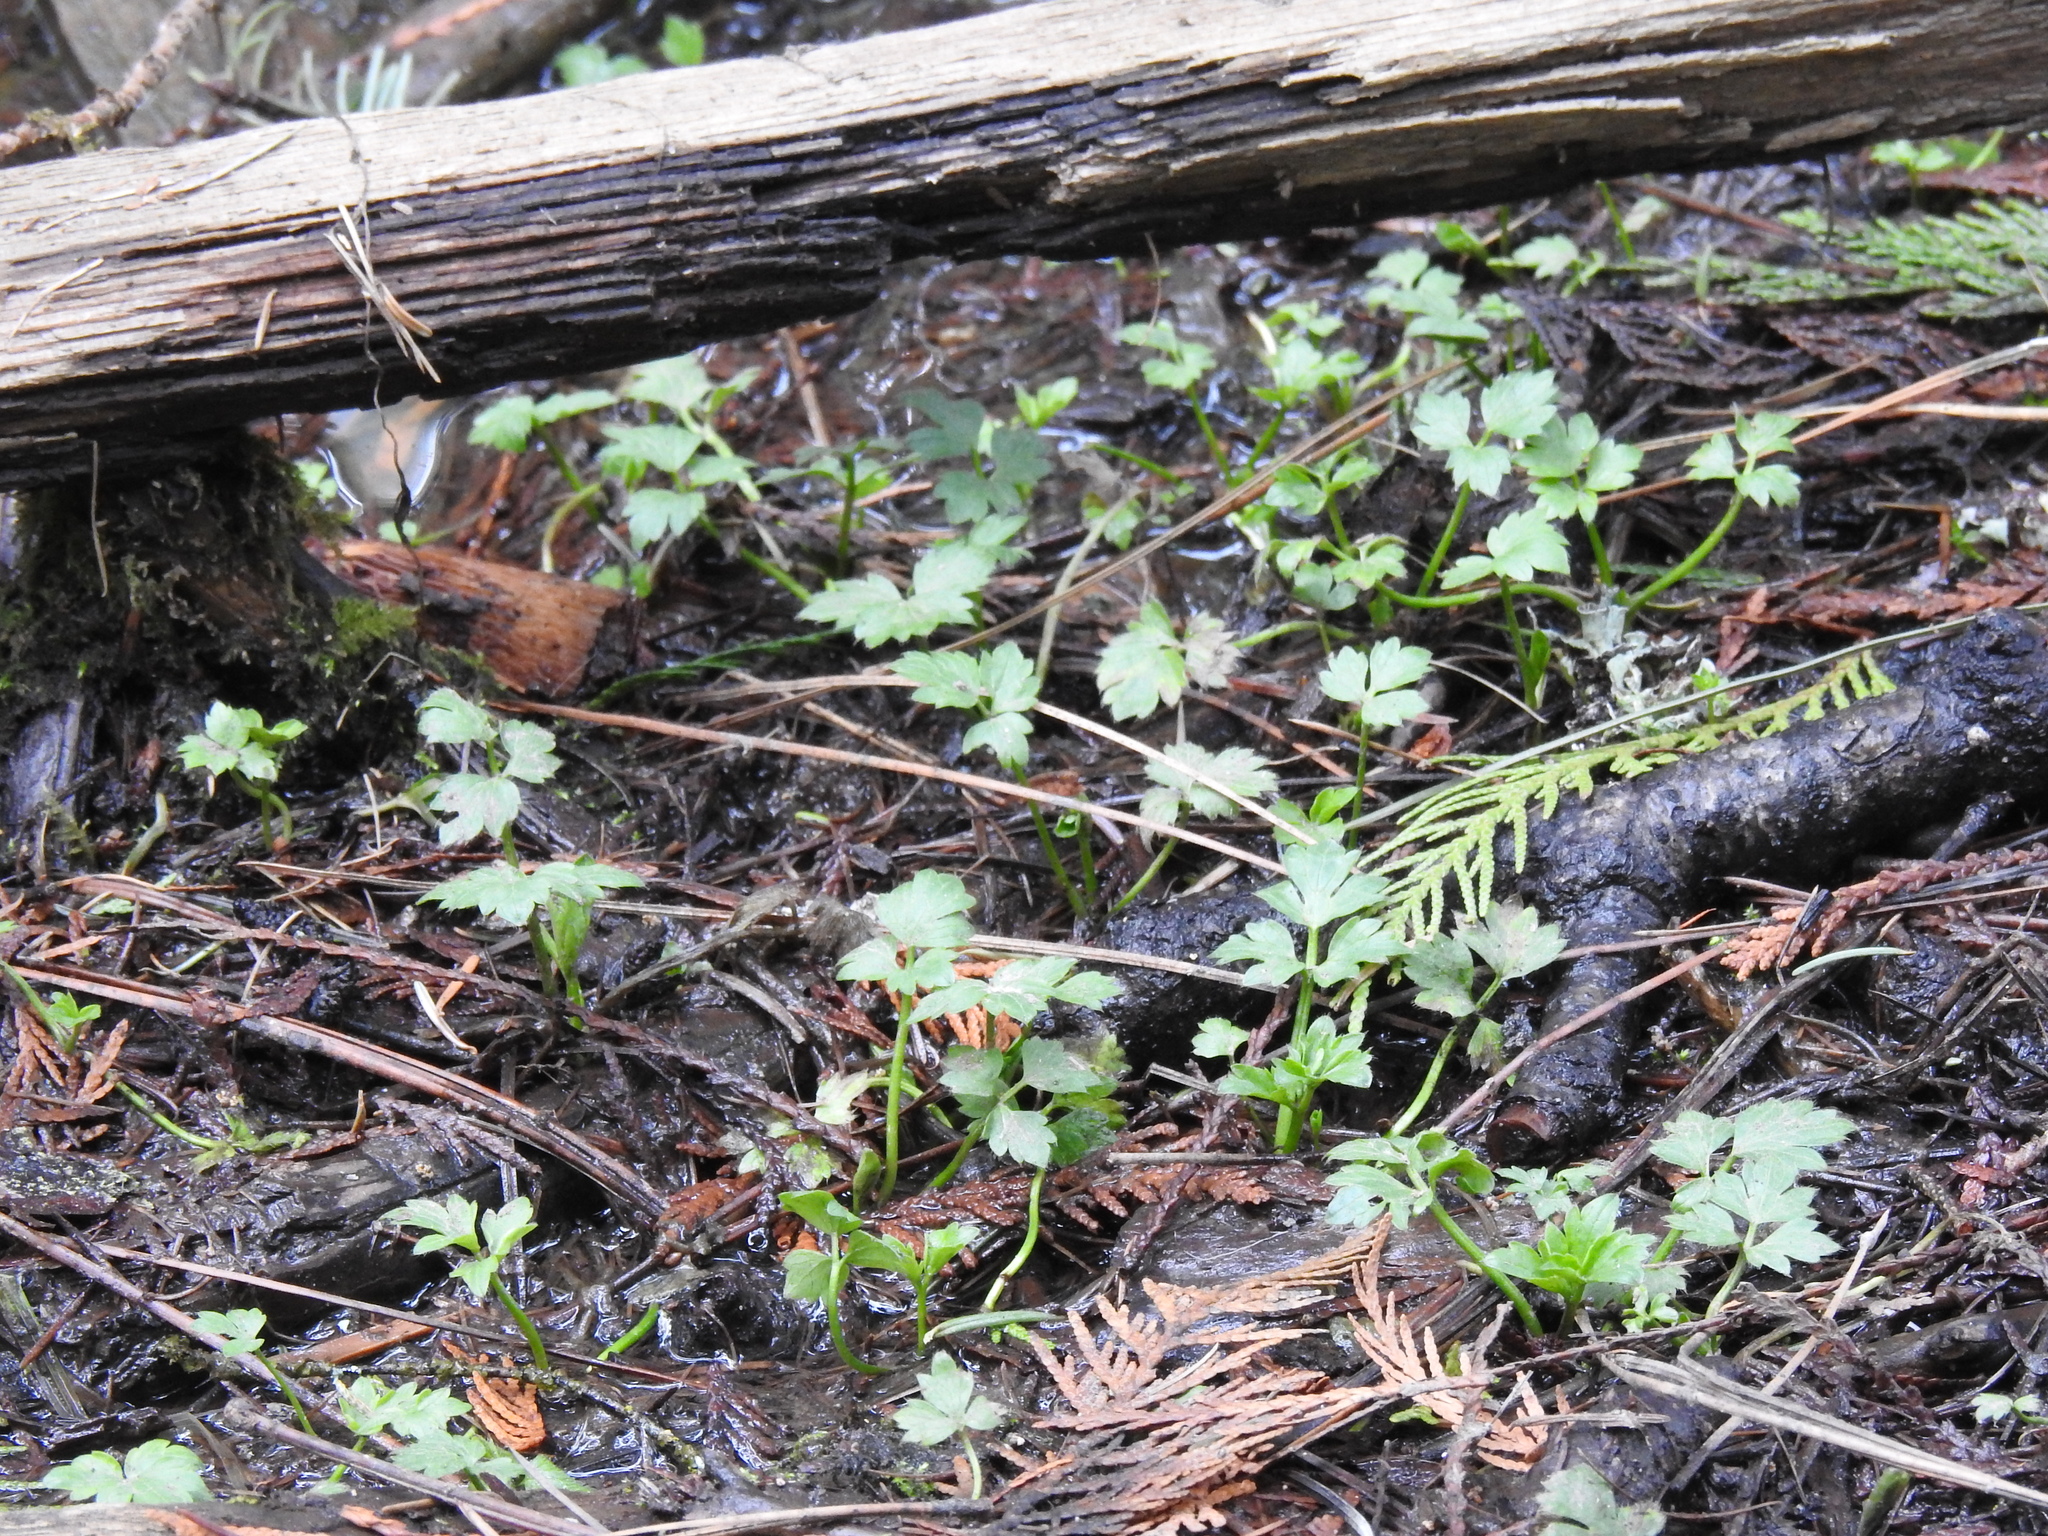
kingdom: Plantae
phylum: Tracheophyta
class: Magnoliopsida
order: Ranunculales
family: Ranunculaceae
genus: Ranunculus
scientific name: Ranunculus repens
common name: Creeping buttercup
